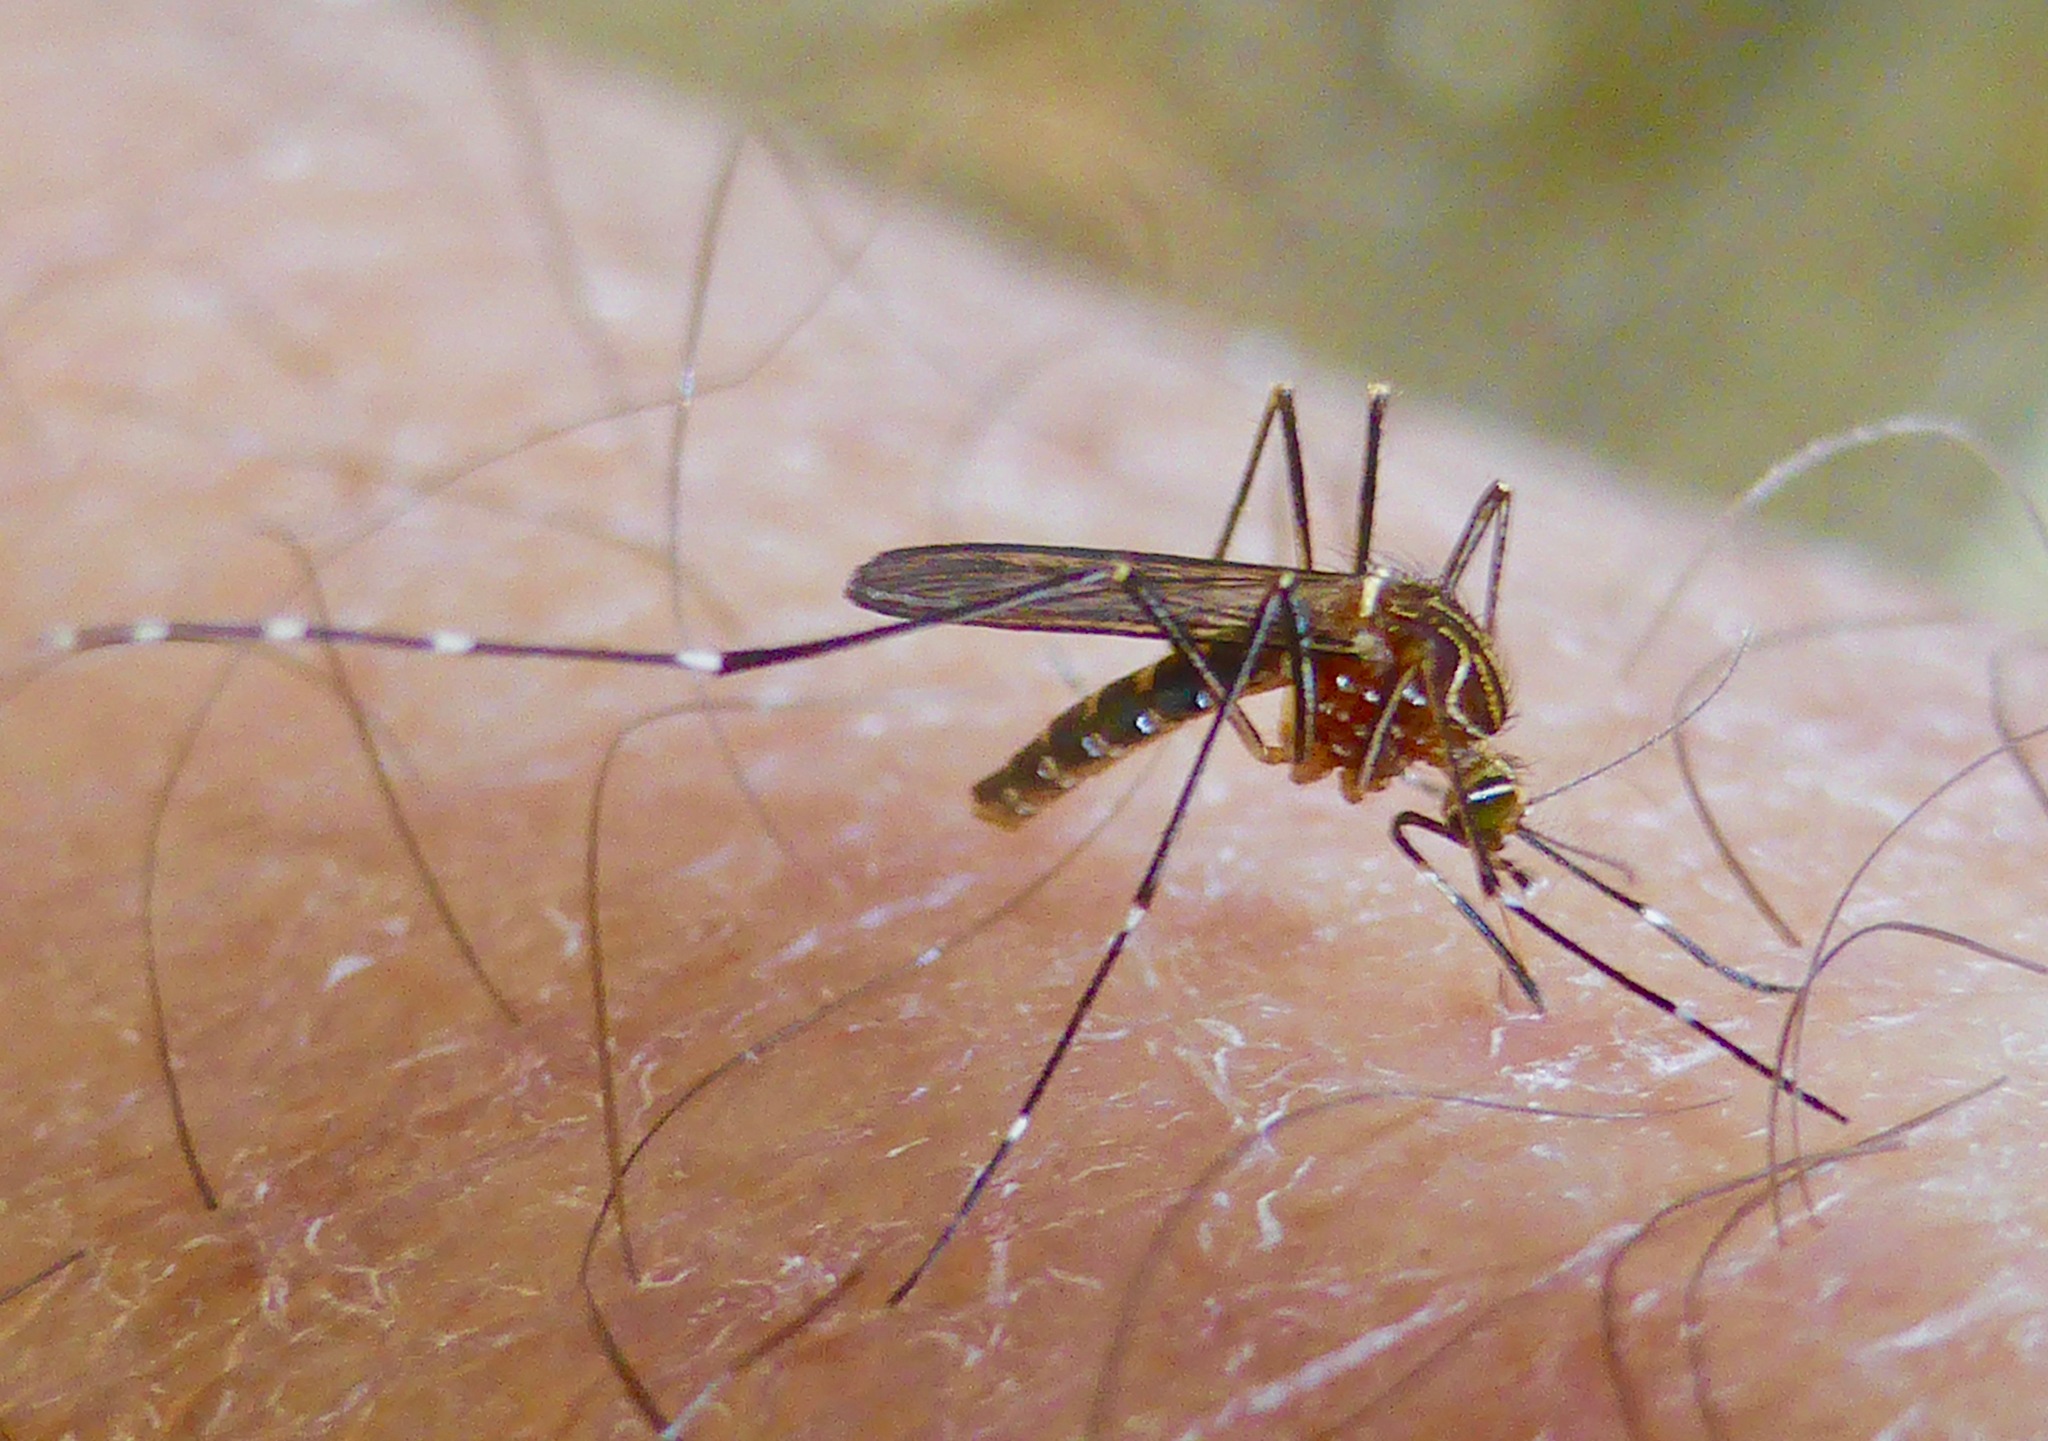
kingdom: Animalia
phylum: Arthropoda
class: Insecta
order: Diptera
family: Culicidae
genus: Aedes
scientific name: Aedes notoscriptus
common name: Australian backyard mosquito
